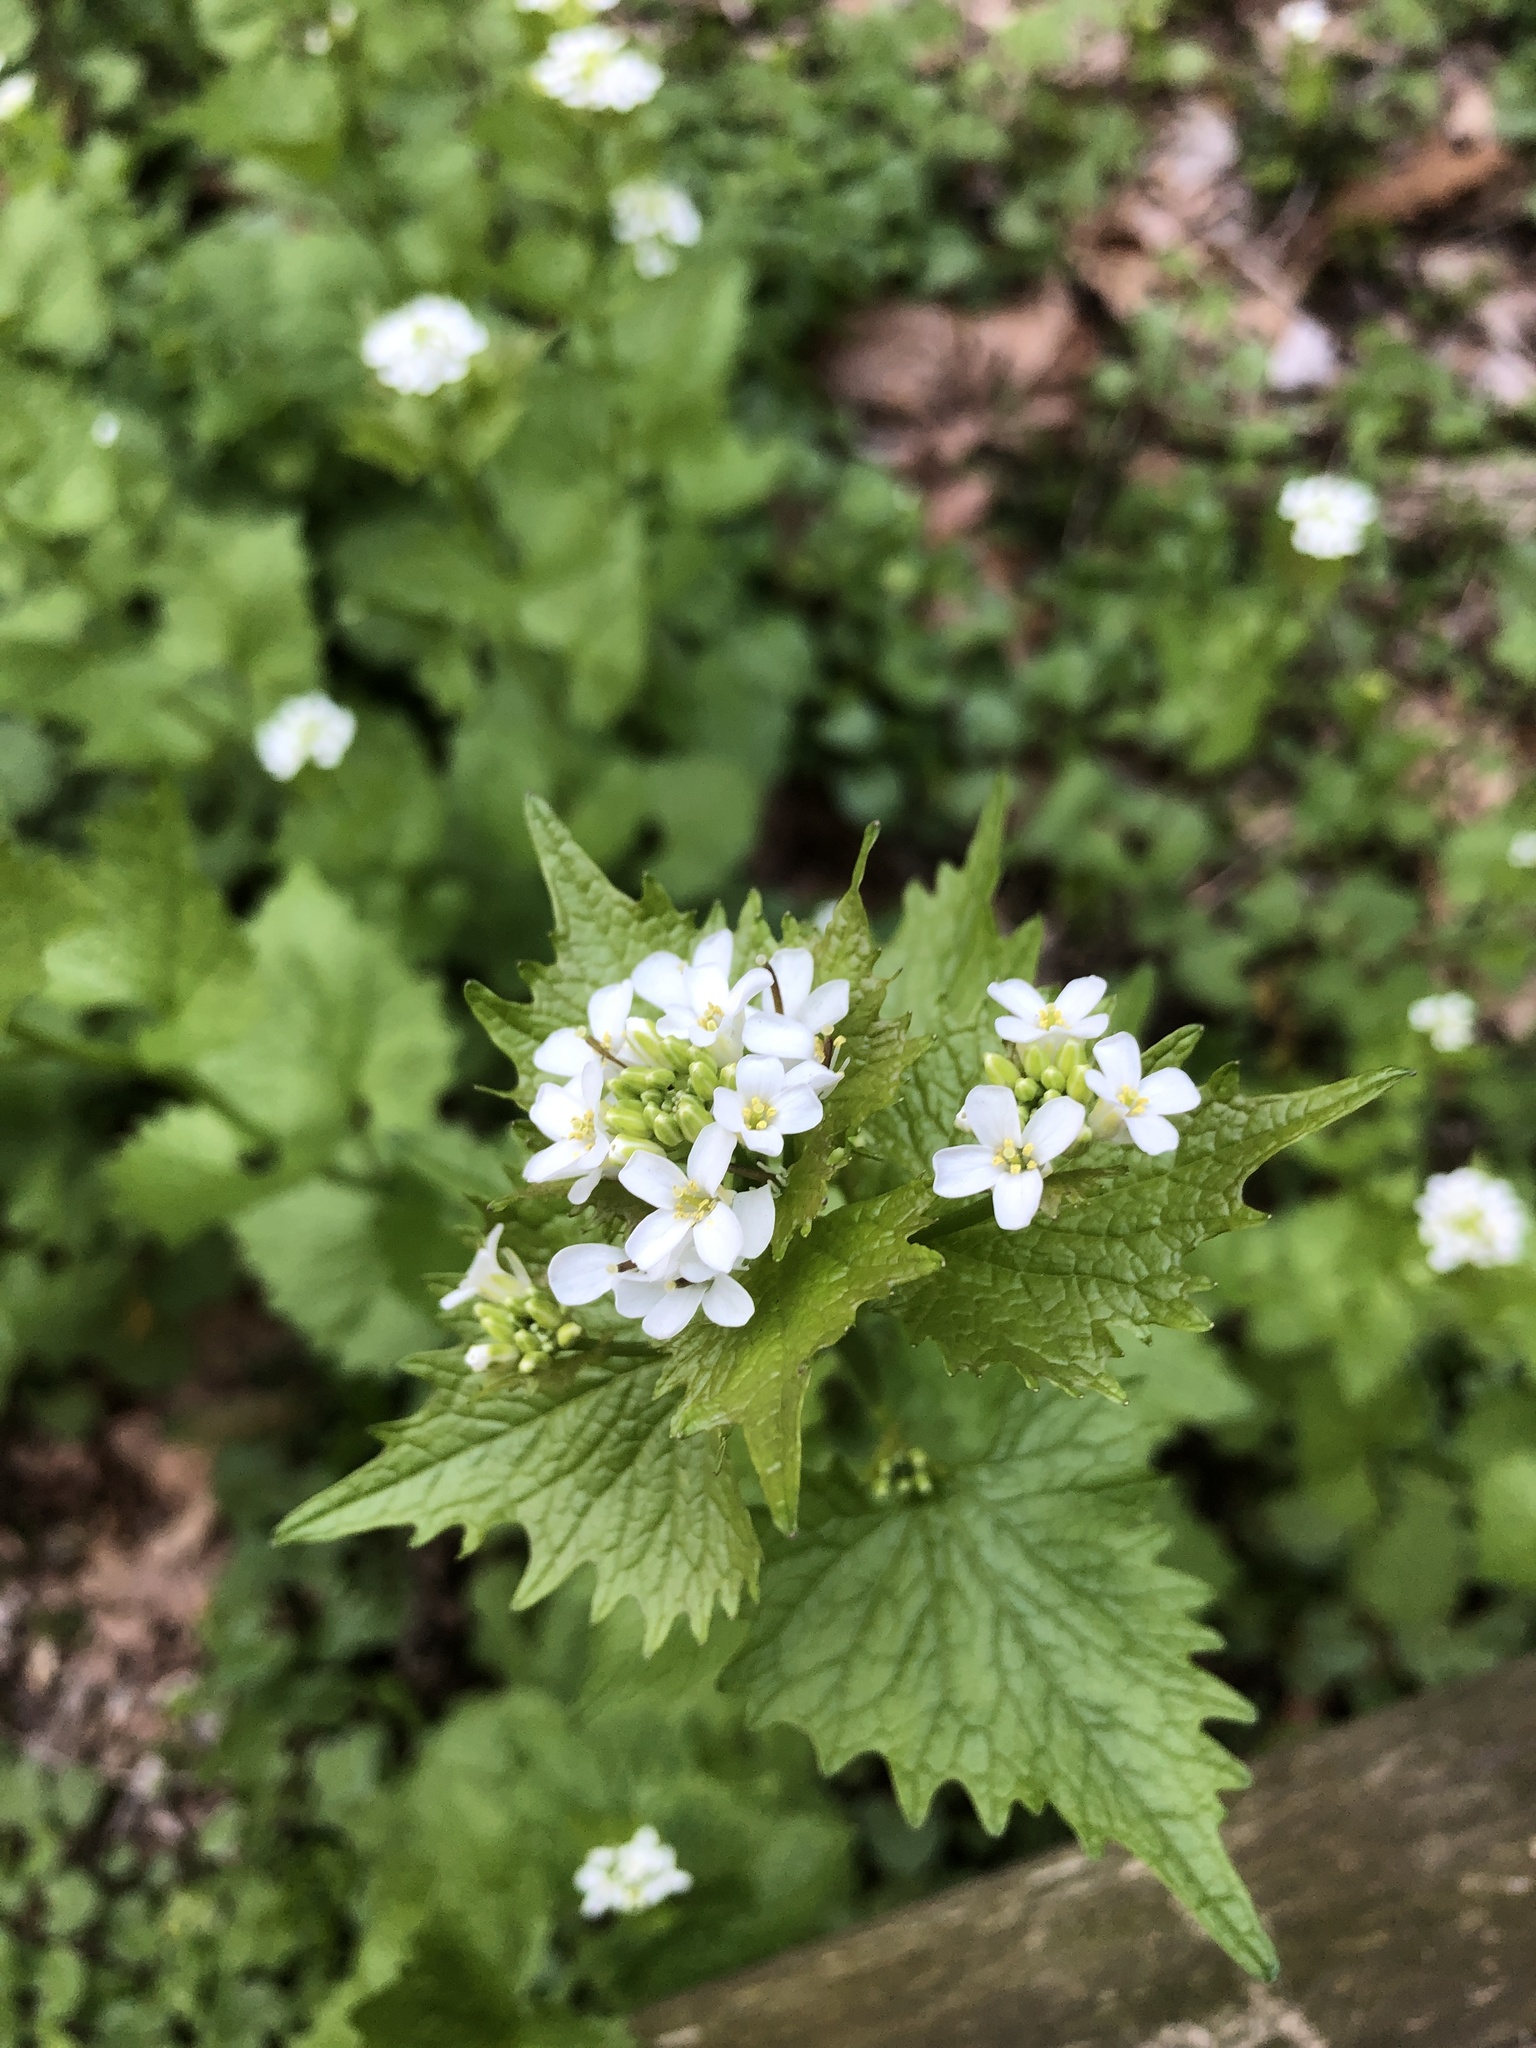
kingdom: Plantae
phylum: Tracheophyta
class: Magnoliopsida
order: Brassicales
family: Brassicaceae
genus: Alliaria
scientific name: Alliaria petiolata
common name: Garlic mustard
